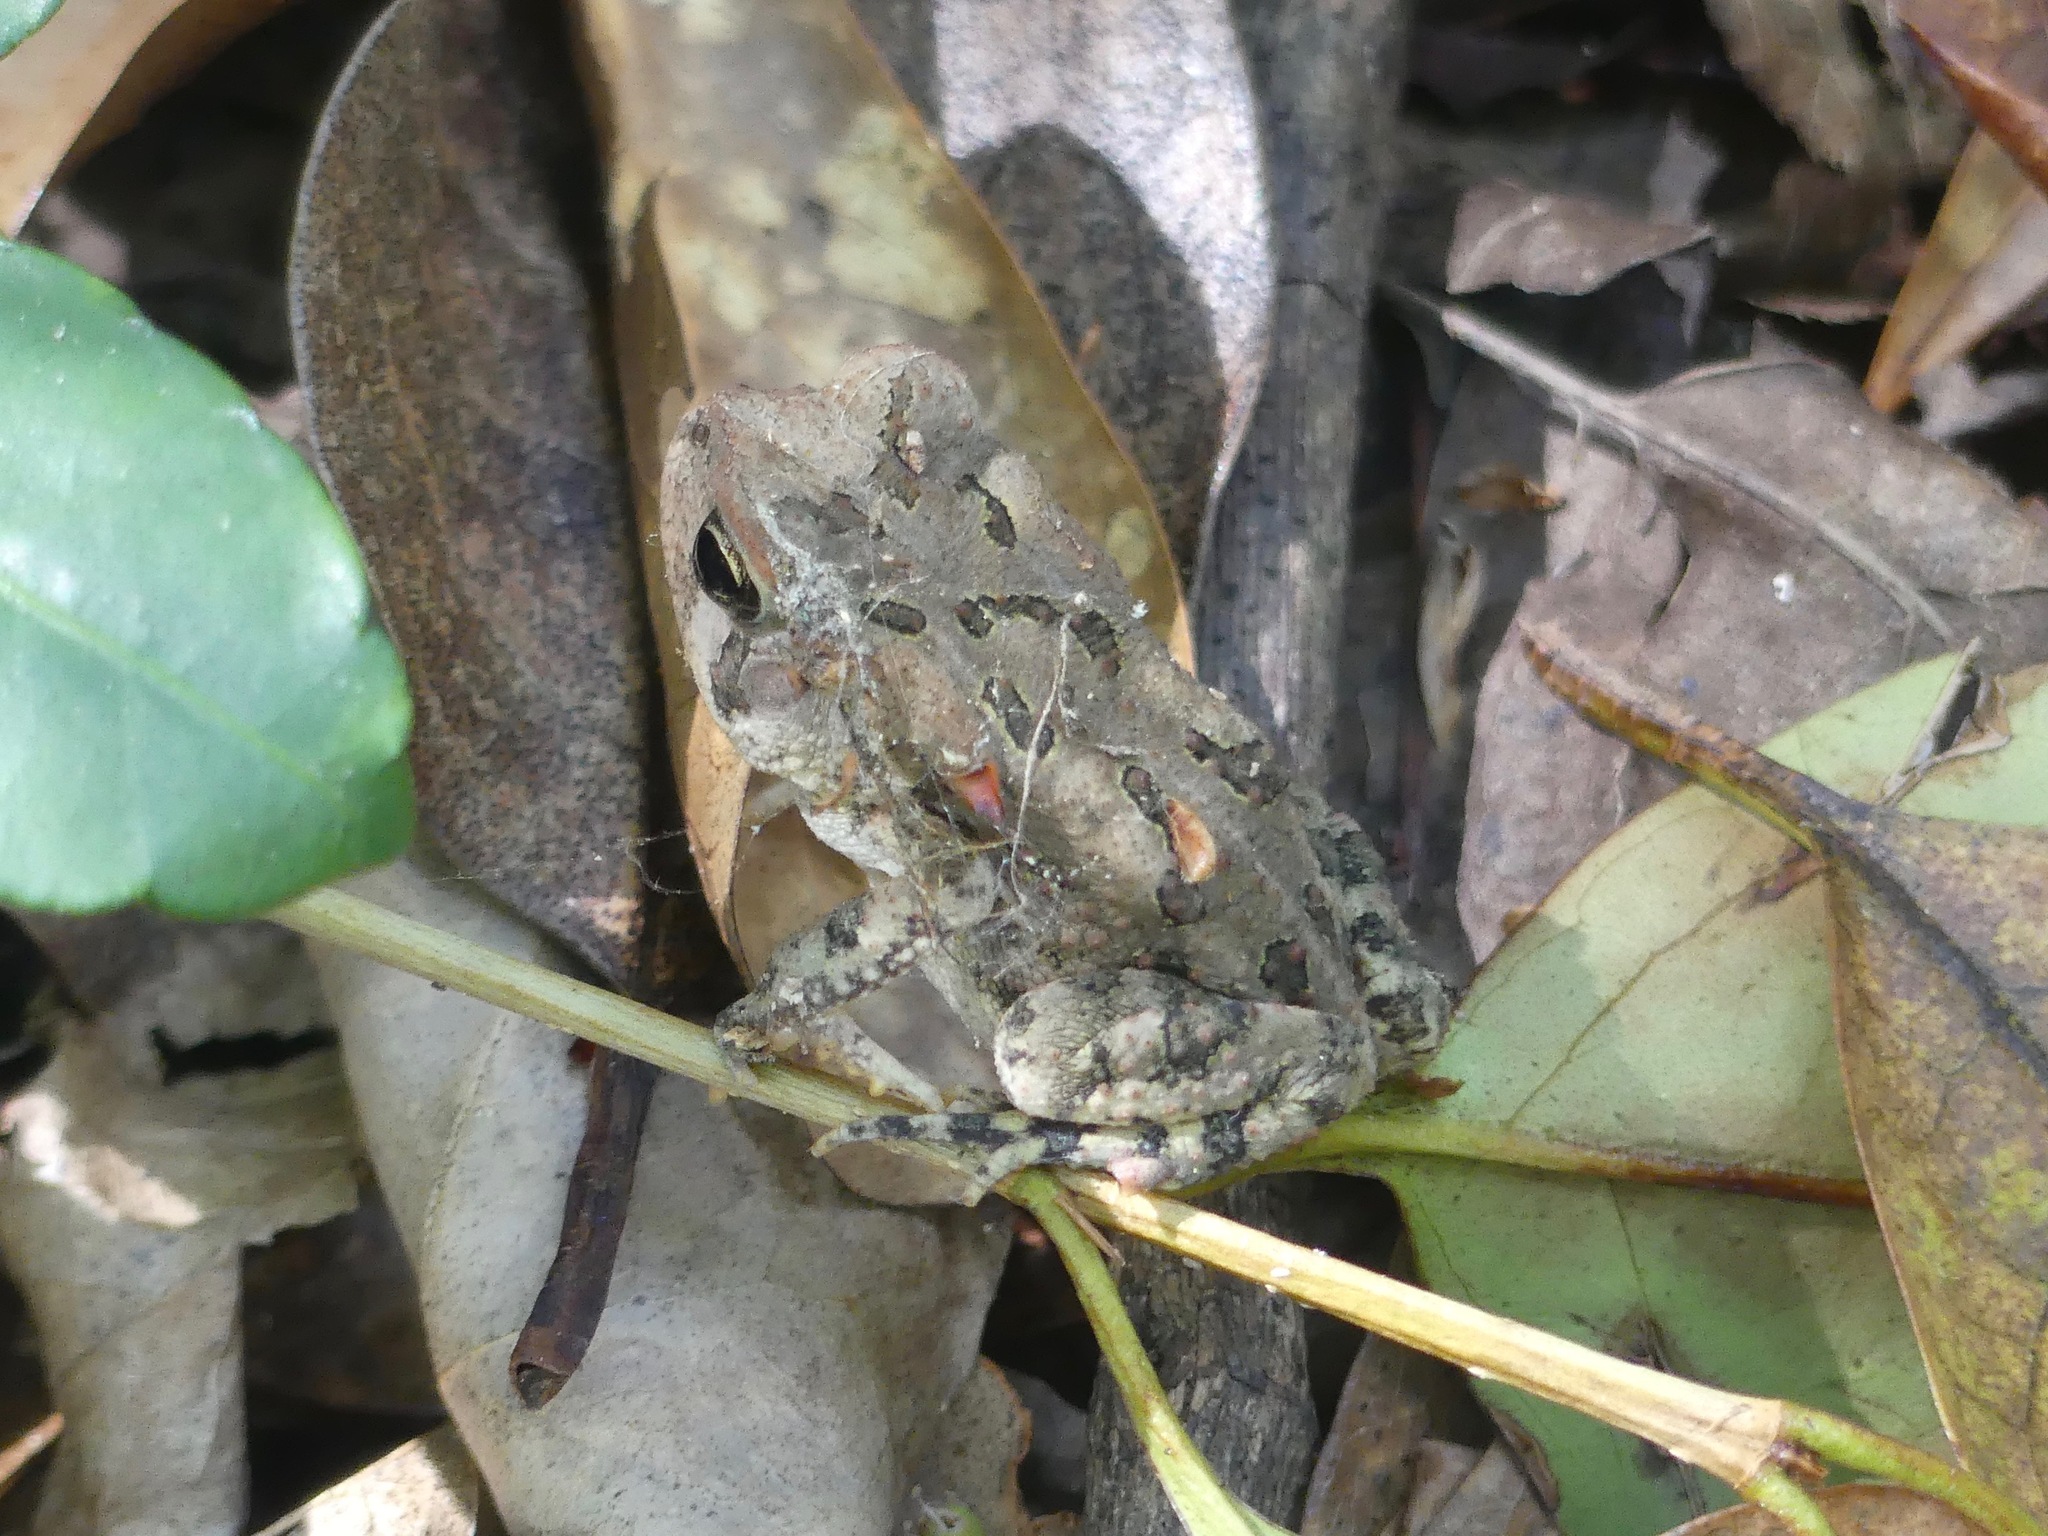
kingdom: Animalia
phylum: Chordata
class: Amphibia
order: Anura
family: Bufonidae
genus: Anaxyrus
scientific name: Anaxyrus fowleri
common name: Fowler's toad
